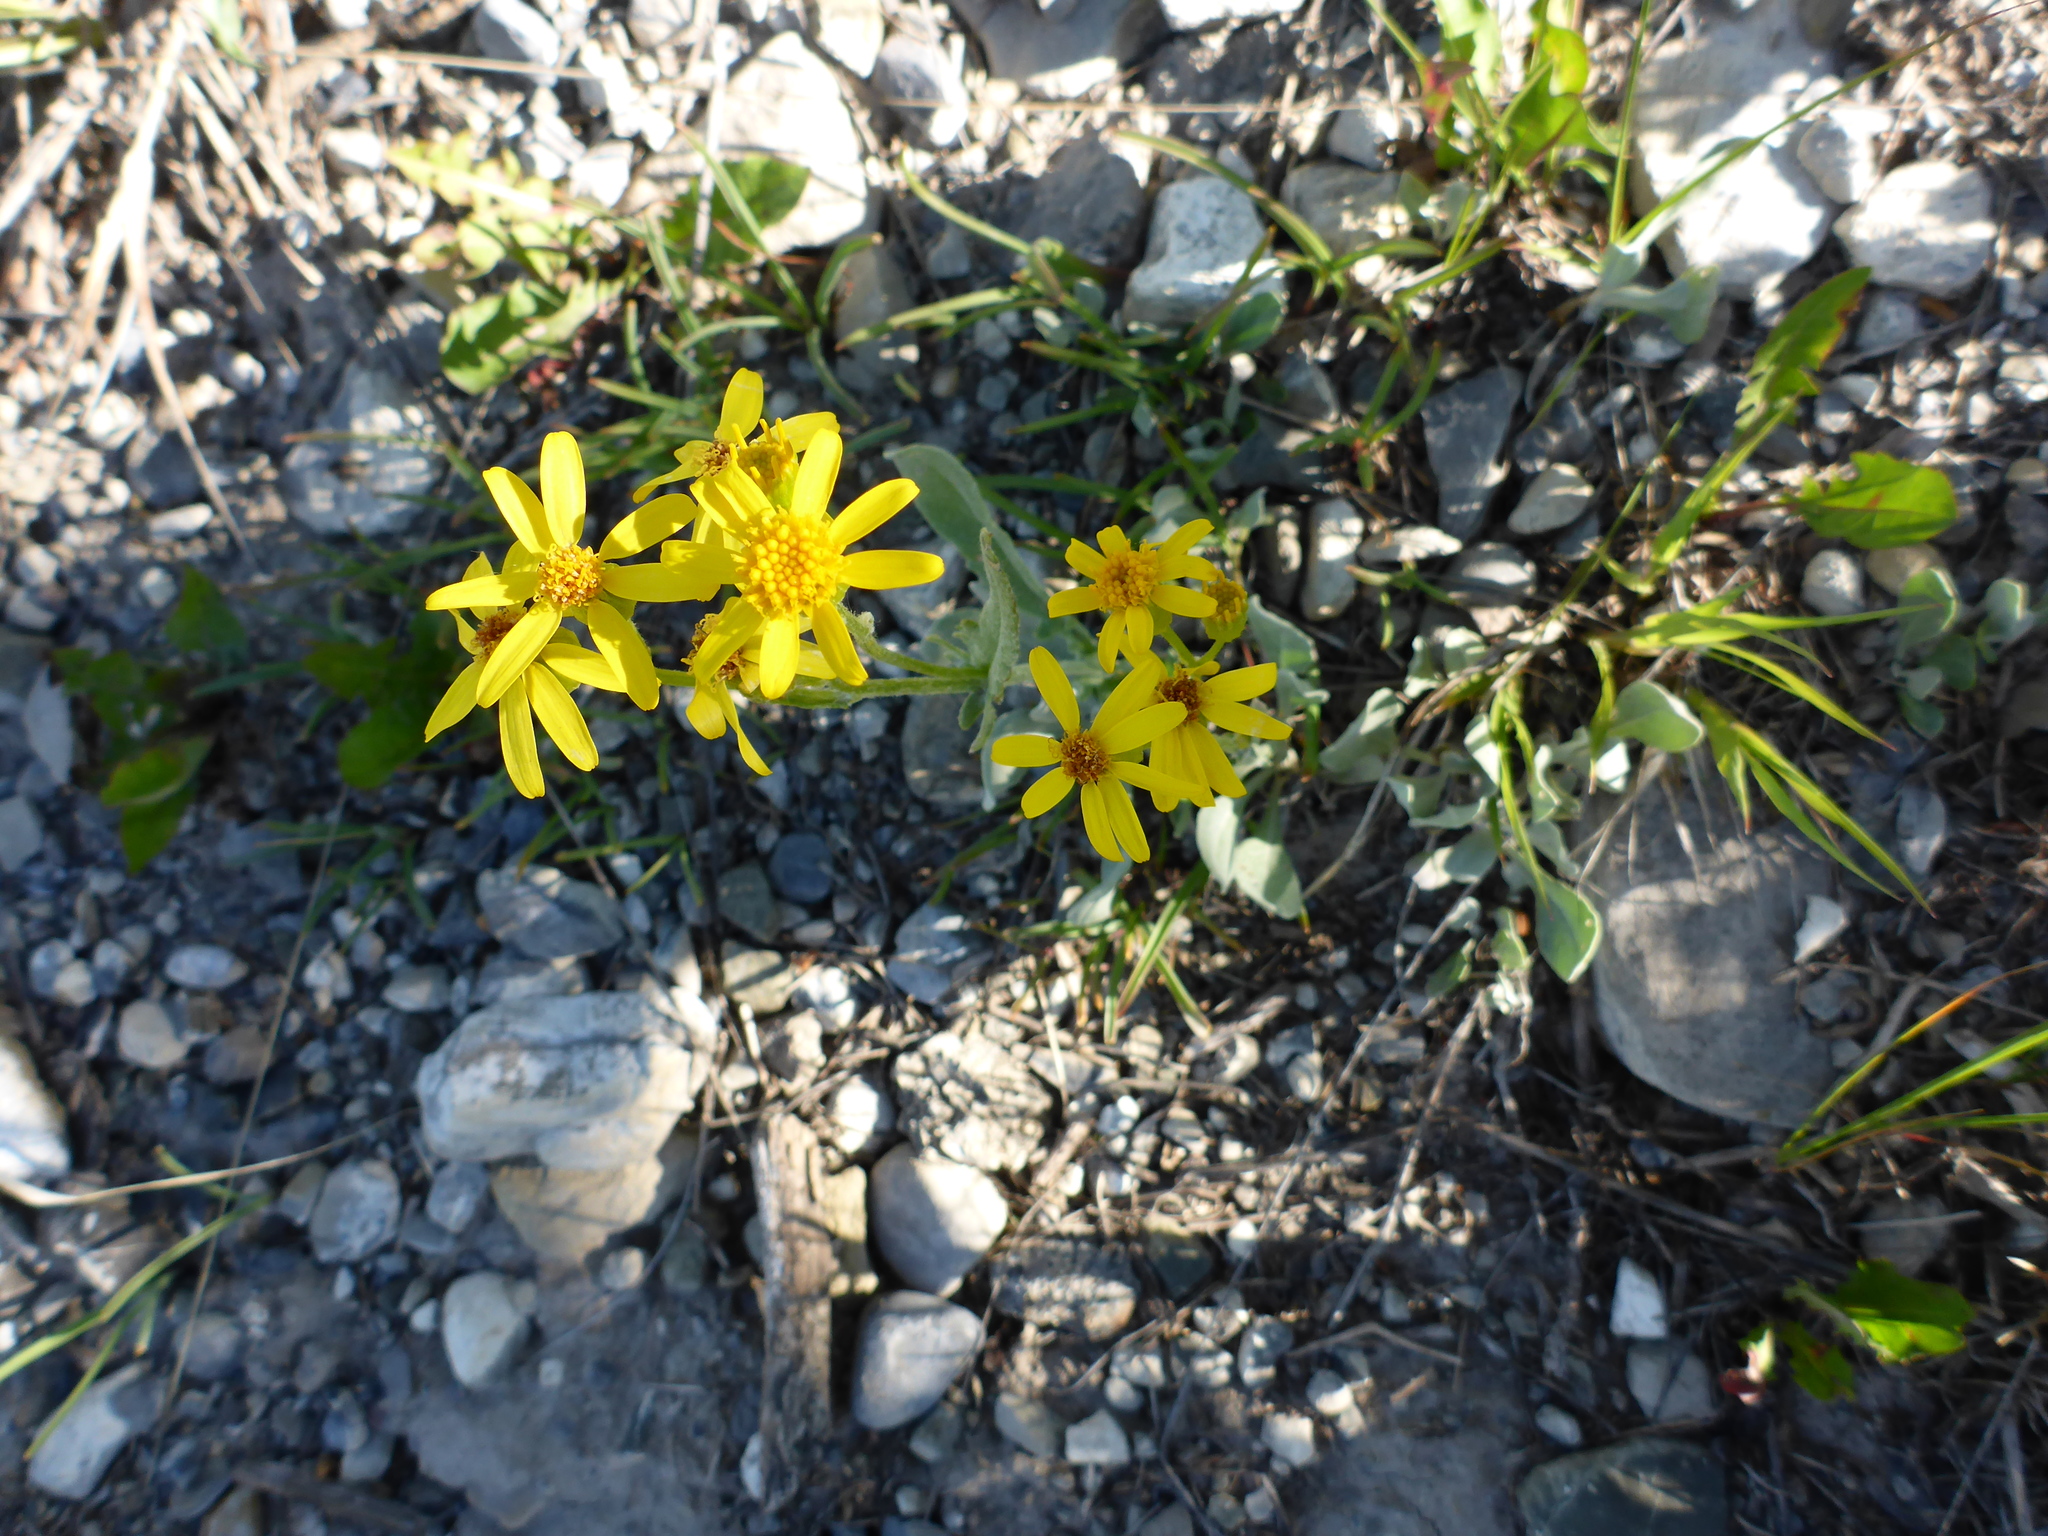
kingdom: Plantae
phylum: Tracheophyta
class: Magnoliopsida
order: Asterales
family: Asteraceae
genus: Packera
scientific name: Packera cana
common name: Woolly groundsel
